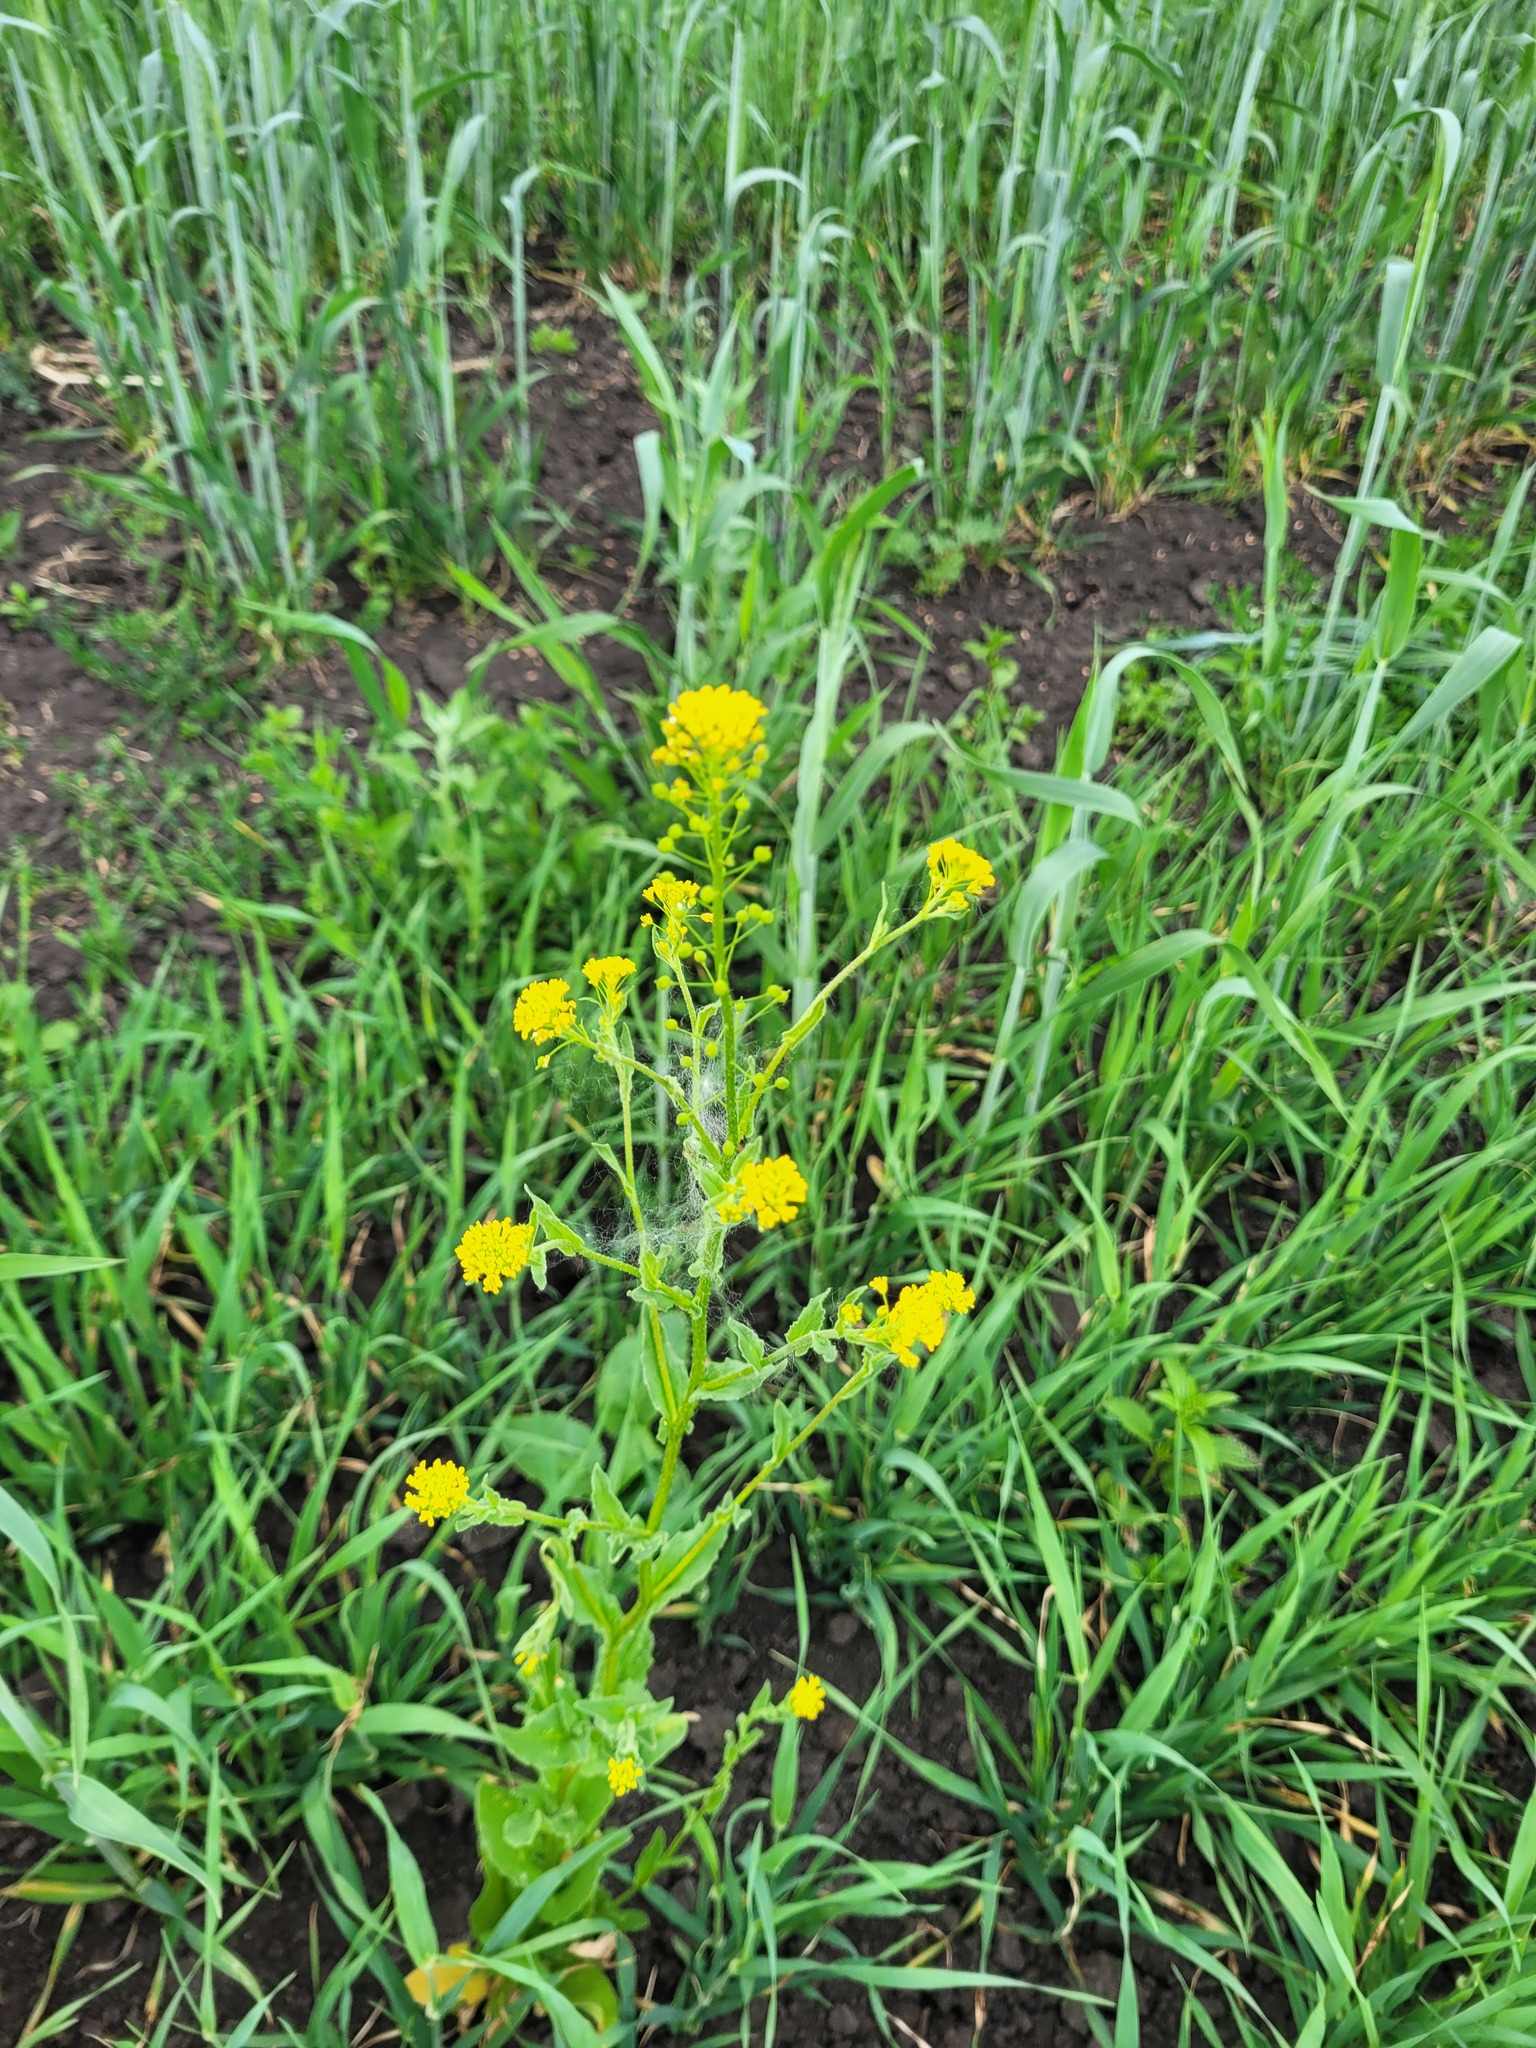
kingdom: Plantae
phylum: Tracheophyta
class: Magnoliopsida
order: Brassicales
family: Brassicaceae
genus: Neslia
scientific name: Neslia paniculata
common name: Ball mustard
